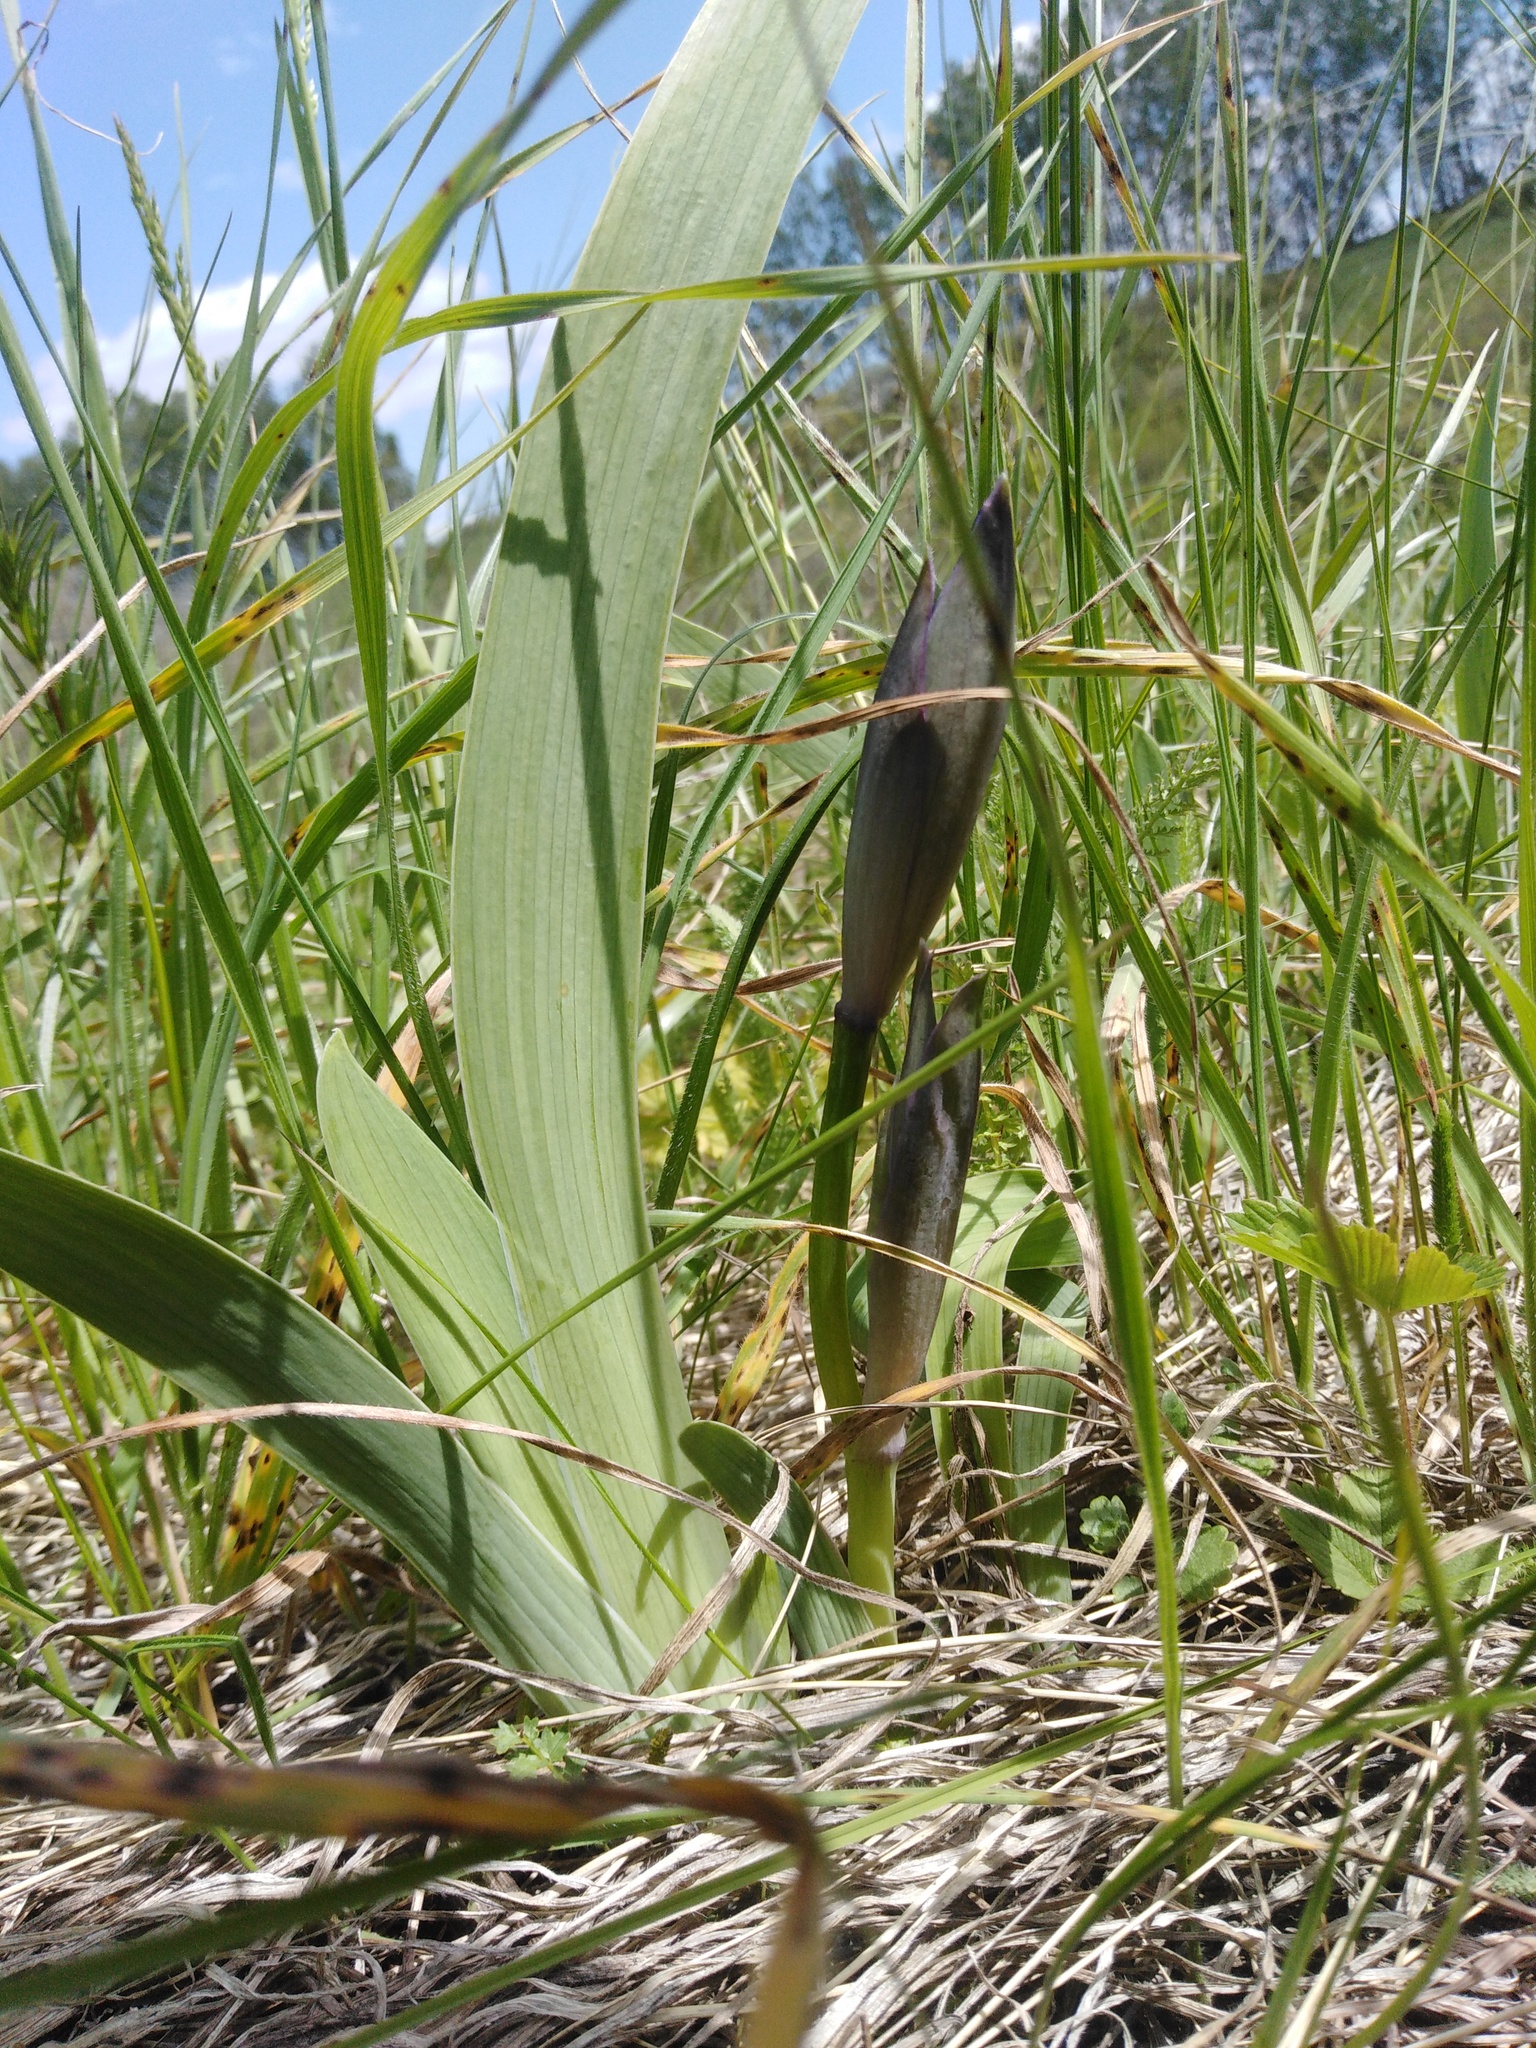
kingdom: Plantae
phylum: Tracheophyta
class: Liliopsida
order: Asparagales
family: Iridaceae
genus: Iris
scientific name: Iris aphylla
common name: Stool iris
